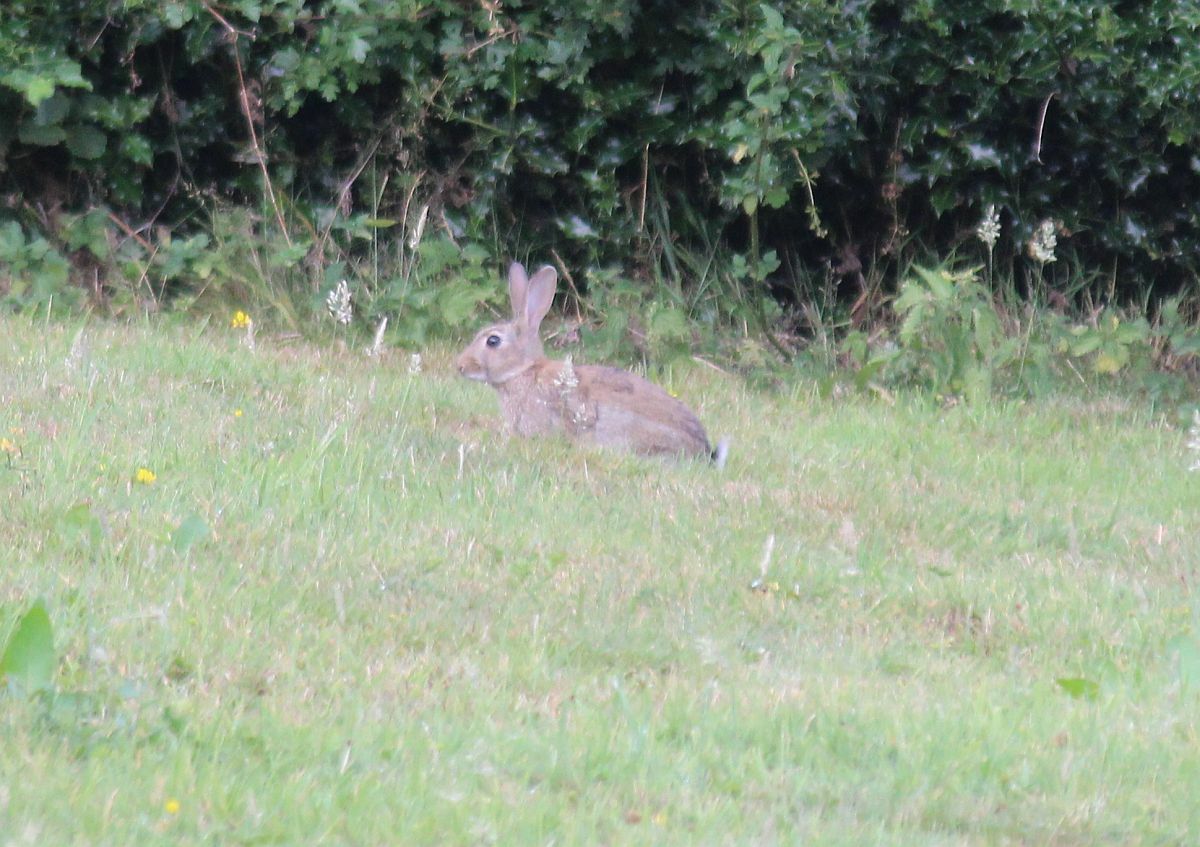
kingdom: Animalia
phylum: Chordata
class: Mammalia
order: Lagomorpha
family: Leporidae
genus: Oryctolagus
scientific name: Oryctolagus cuniculus
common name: European rabbit
